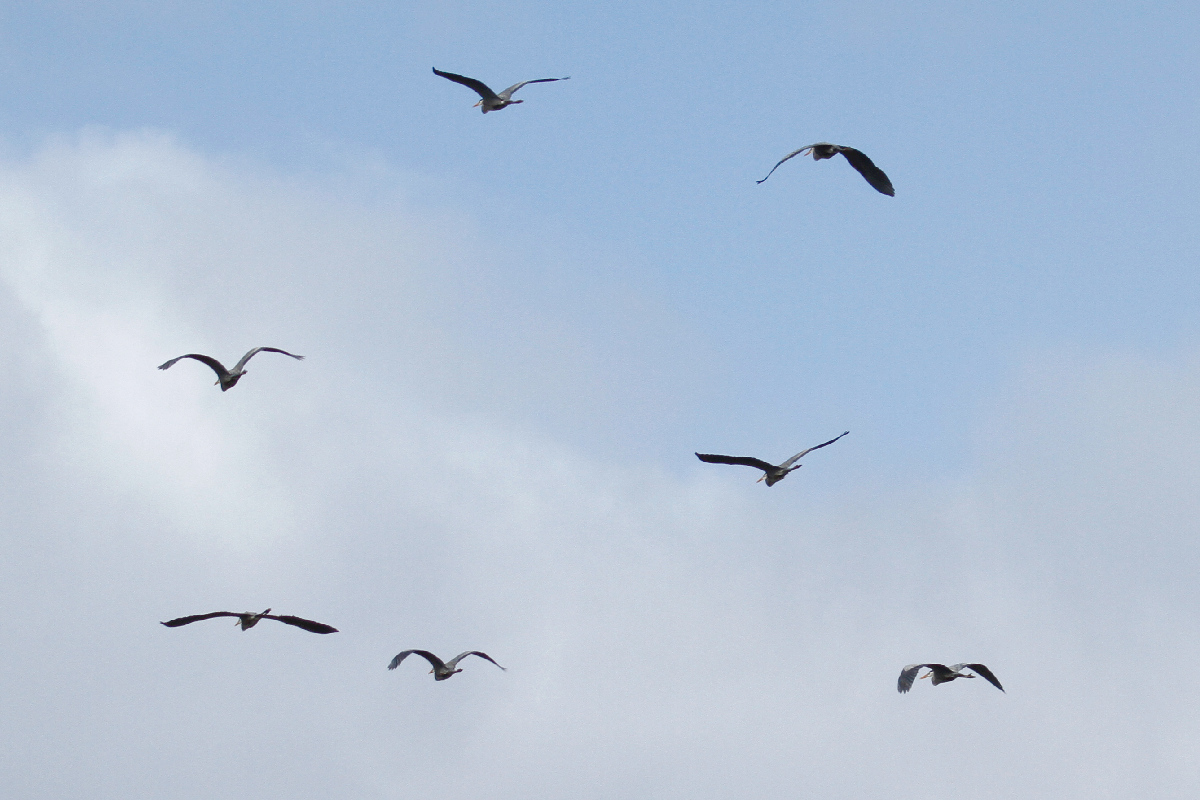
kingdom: Animalia
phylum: Chordata
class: Aves
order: Pelecaniformes
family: Ardeidae
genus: Ardea
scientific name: Ardea herodias
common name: Great blue heron
